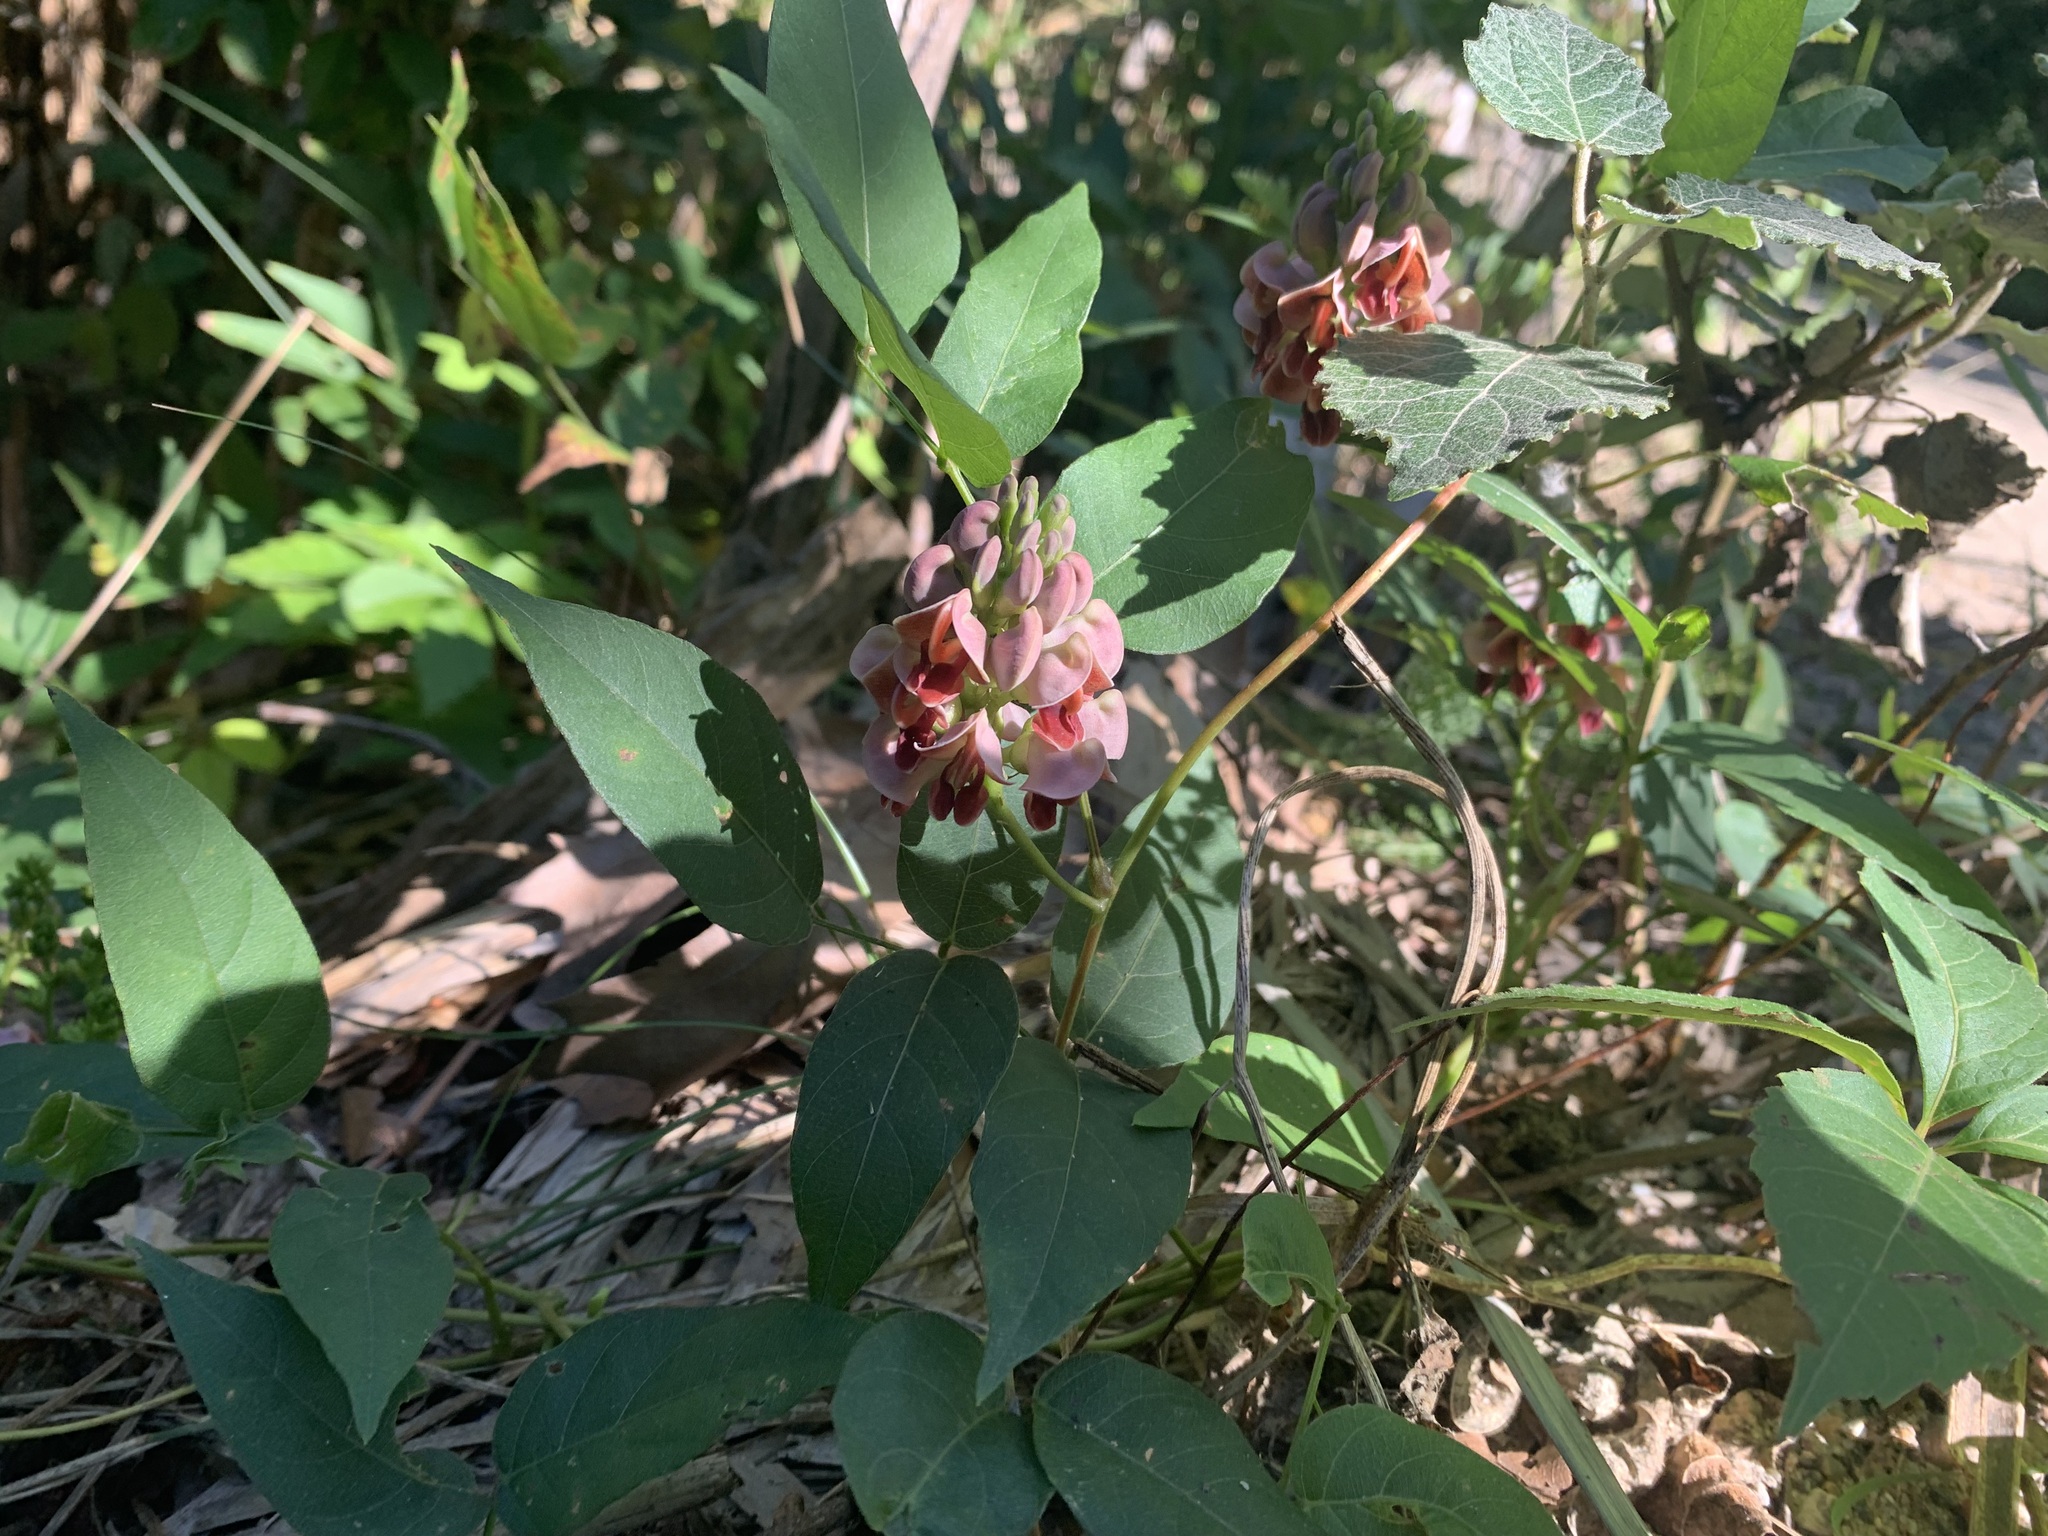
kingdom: Plantae
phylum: Tracheophyta
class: Magnoliopsida
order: Fabales
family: Fabaceae
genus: Apios
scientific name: Apios americana
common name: American potato-bean
